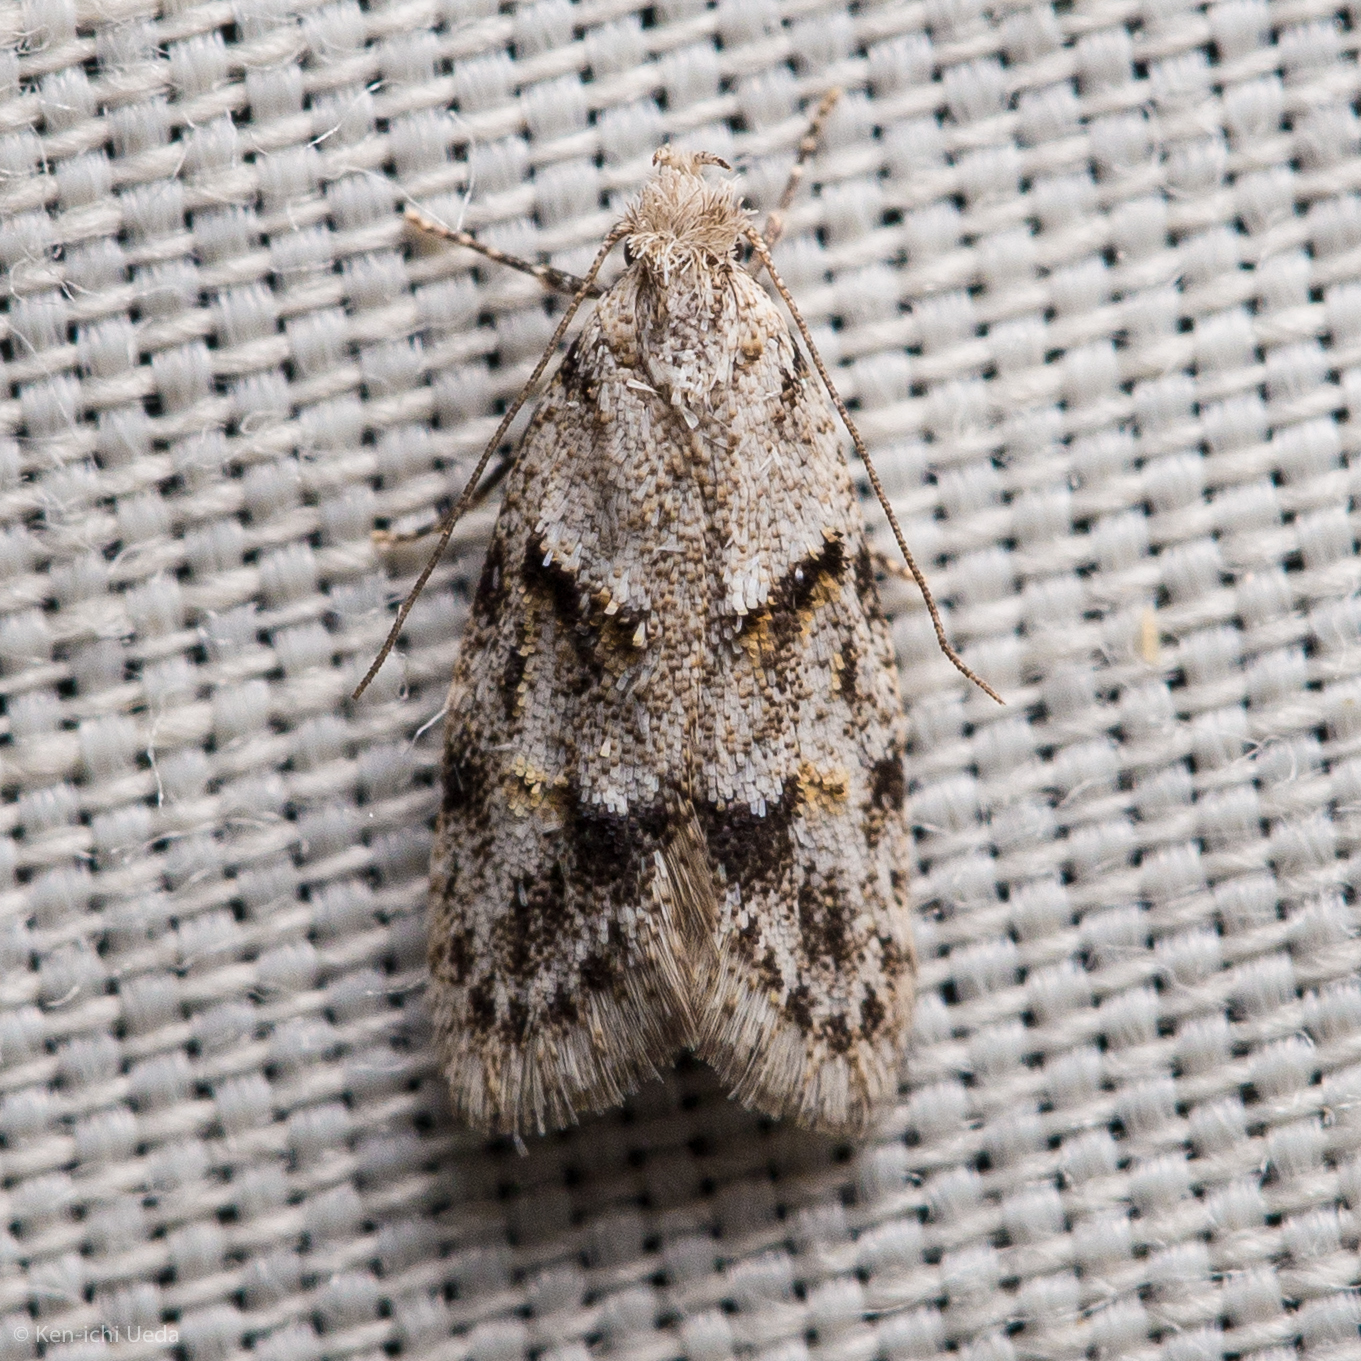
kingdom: Animalia
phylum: Arthropoda
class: Insecta
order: Lepidoptera
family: Autostichidae
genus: Symmoca
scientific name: Symmoca signatella
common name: Dockland obscure
